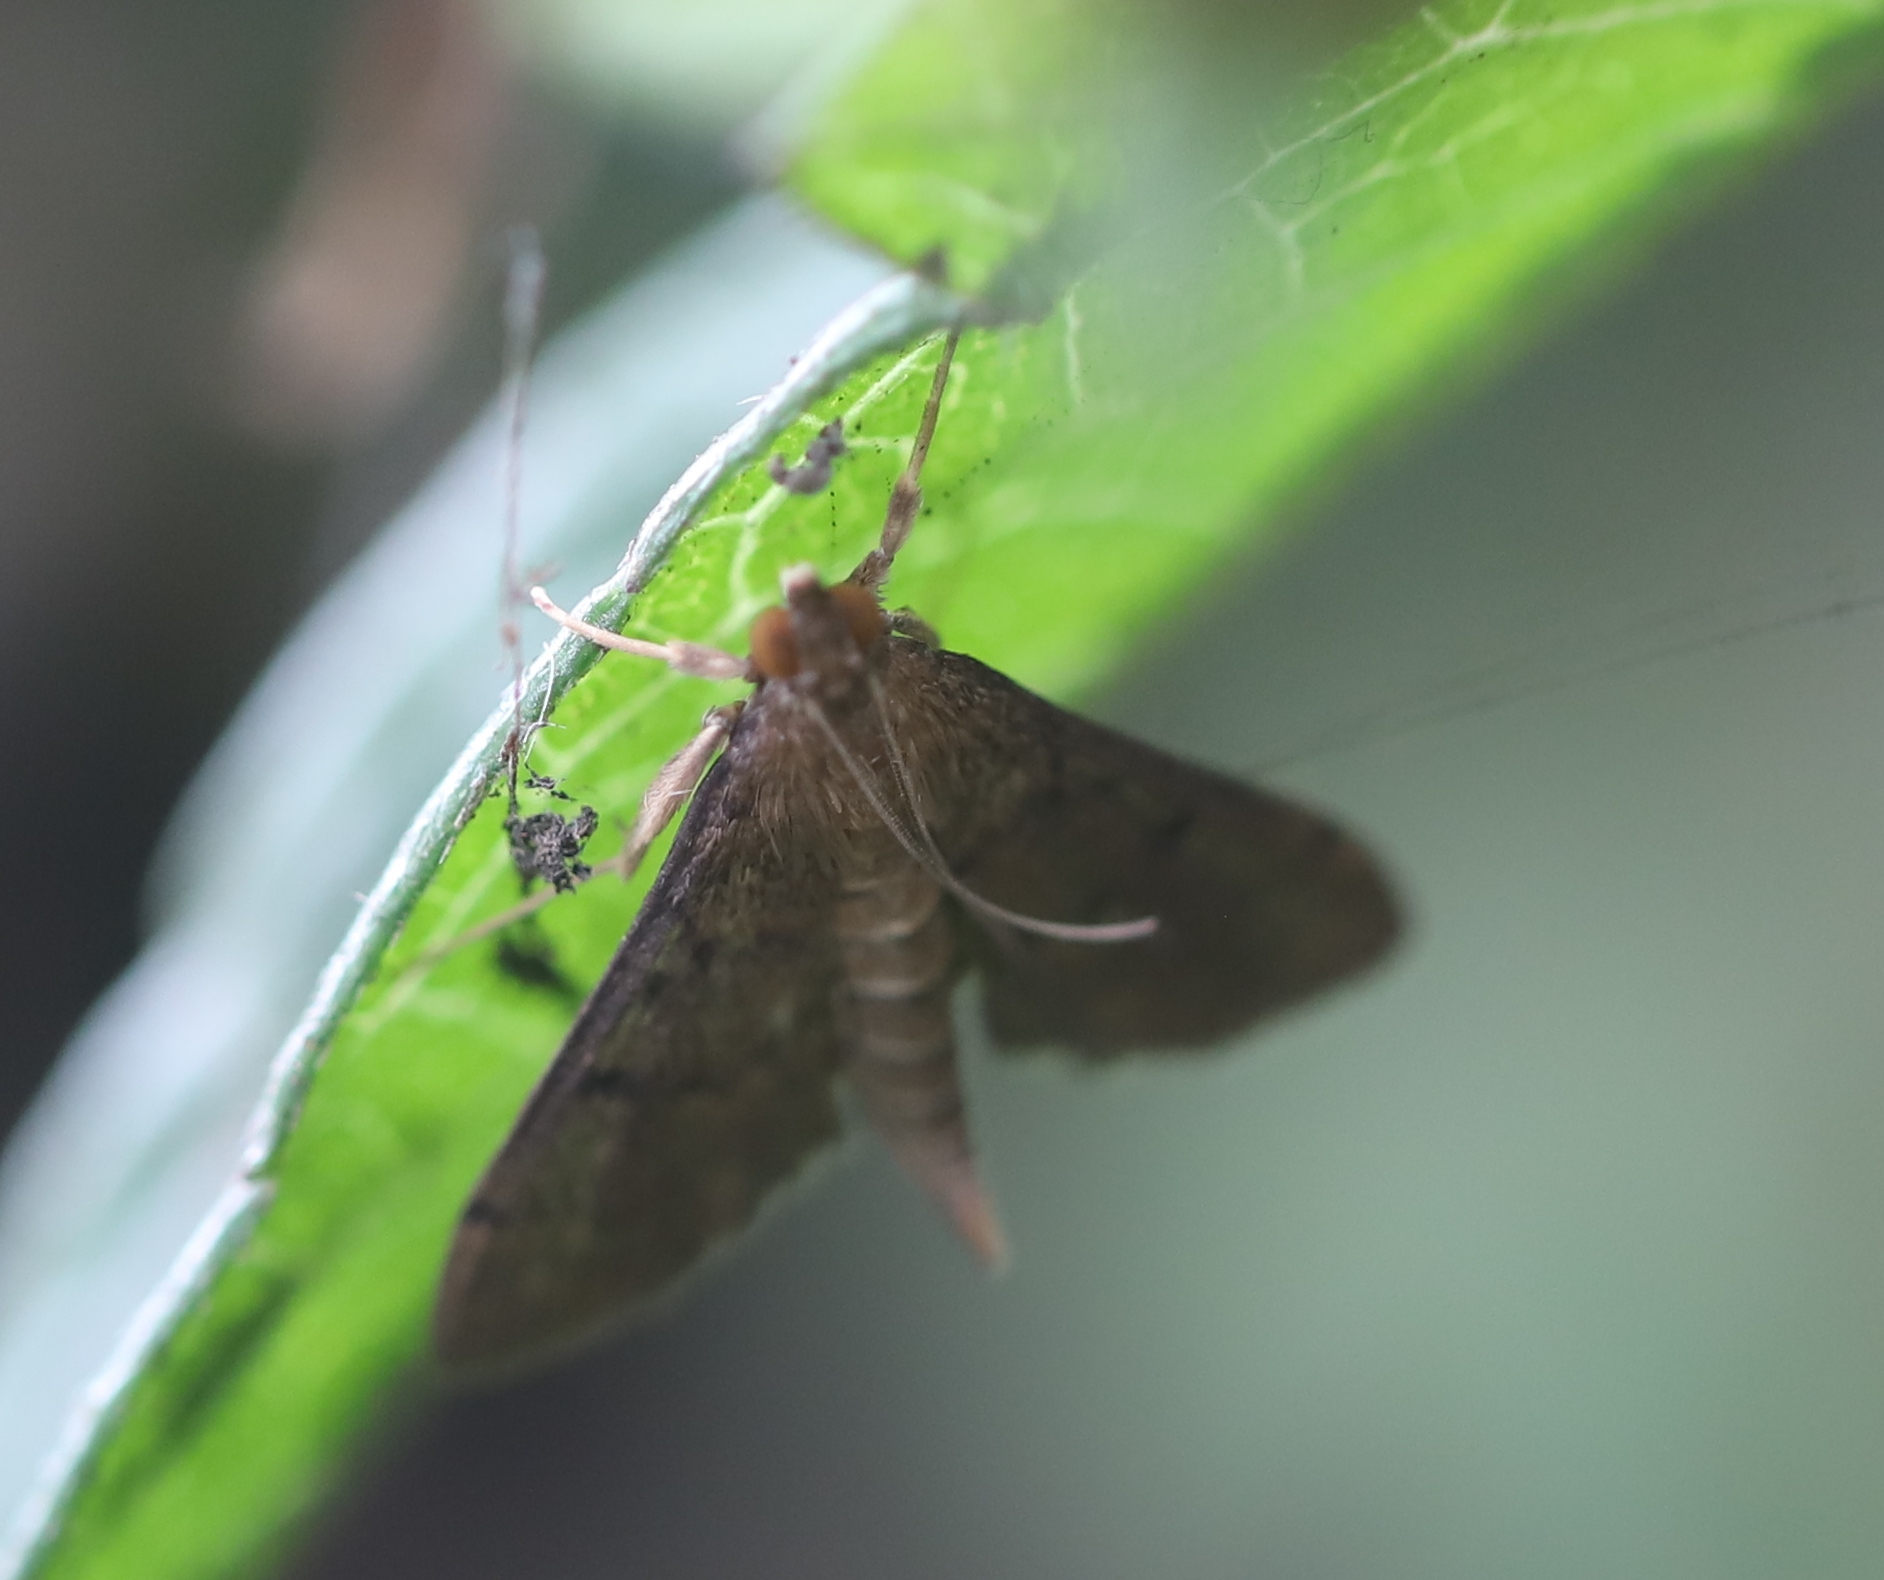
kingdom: Animalia
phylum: Arthropoda
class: Insecta
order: Lepidoptera
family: Crambidae
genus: Herpetogramma
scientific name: Herpetogramma phaeopteralis
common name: Dusky herpetogramma moth
